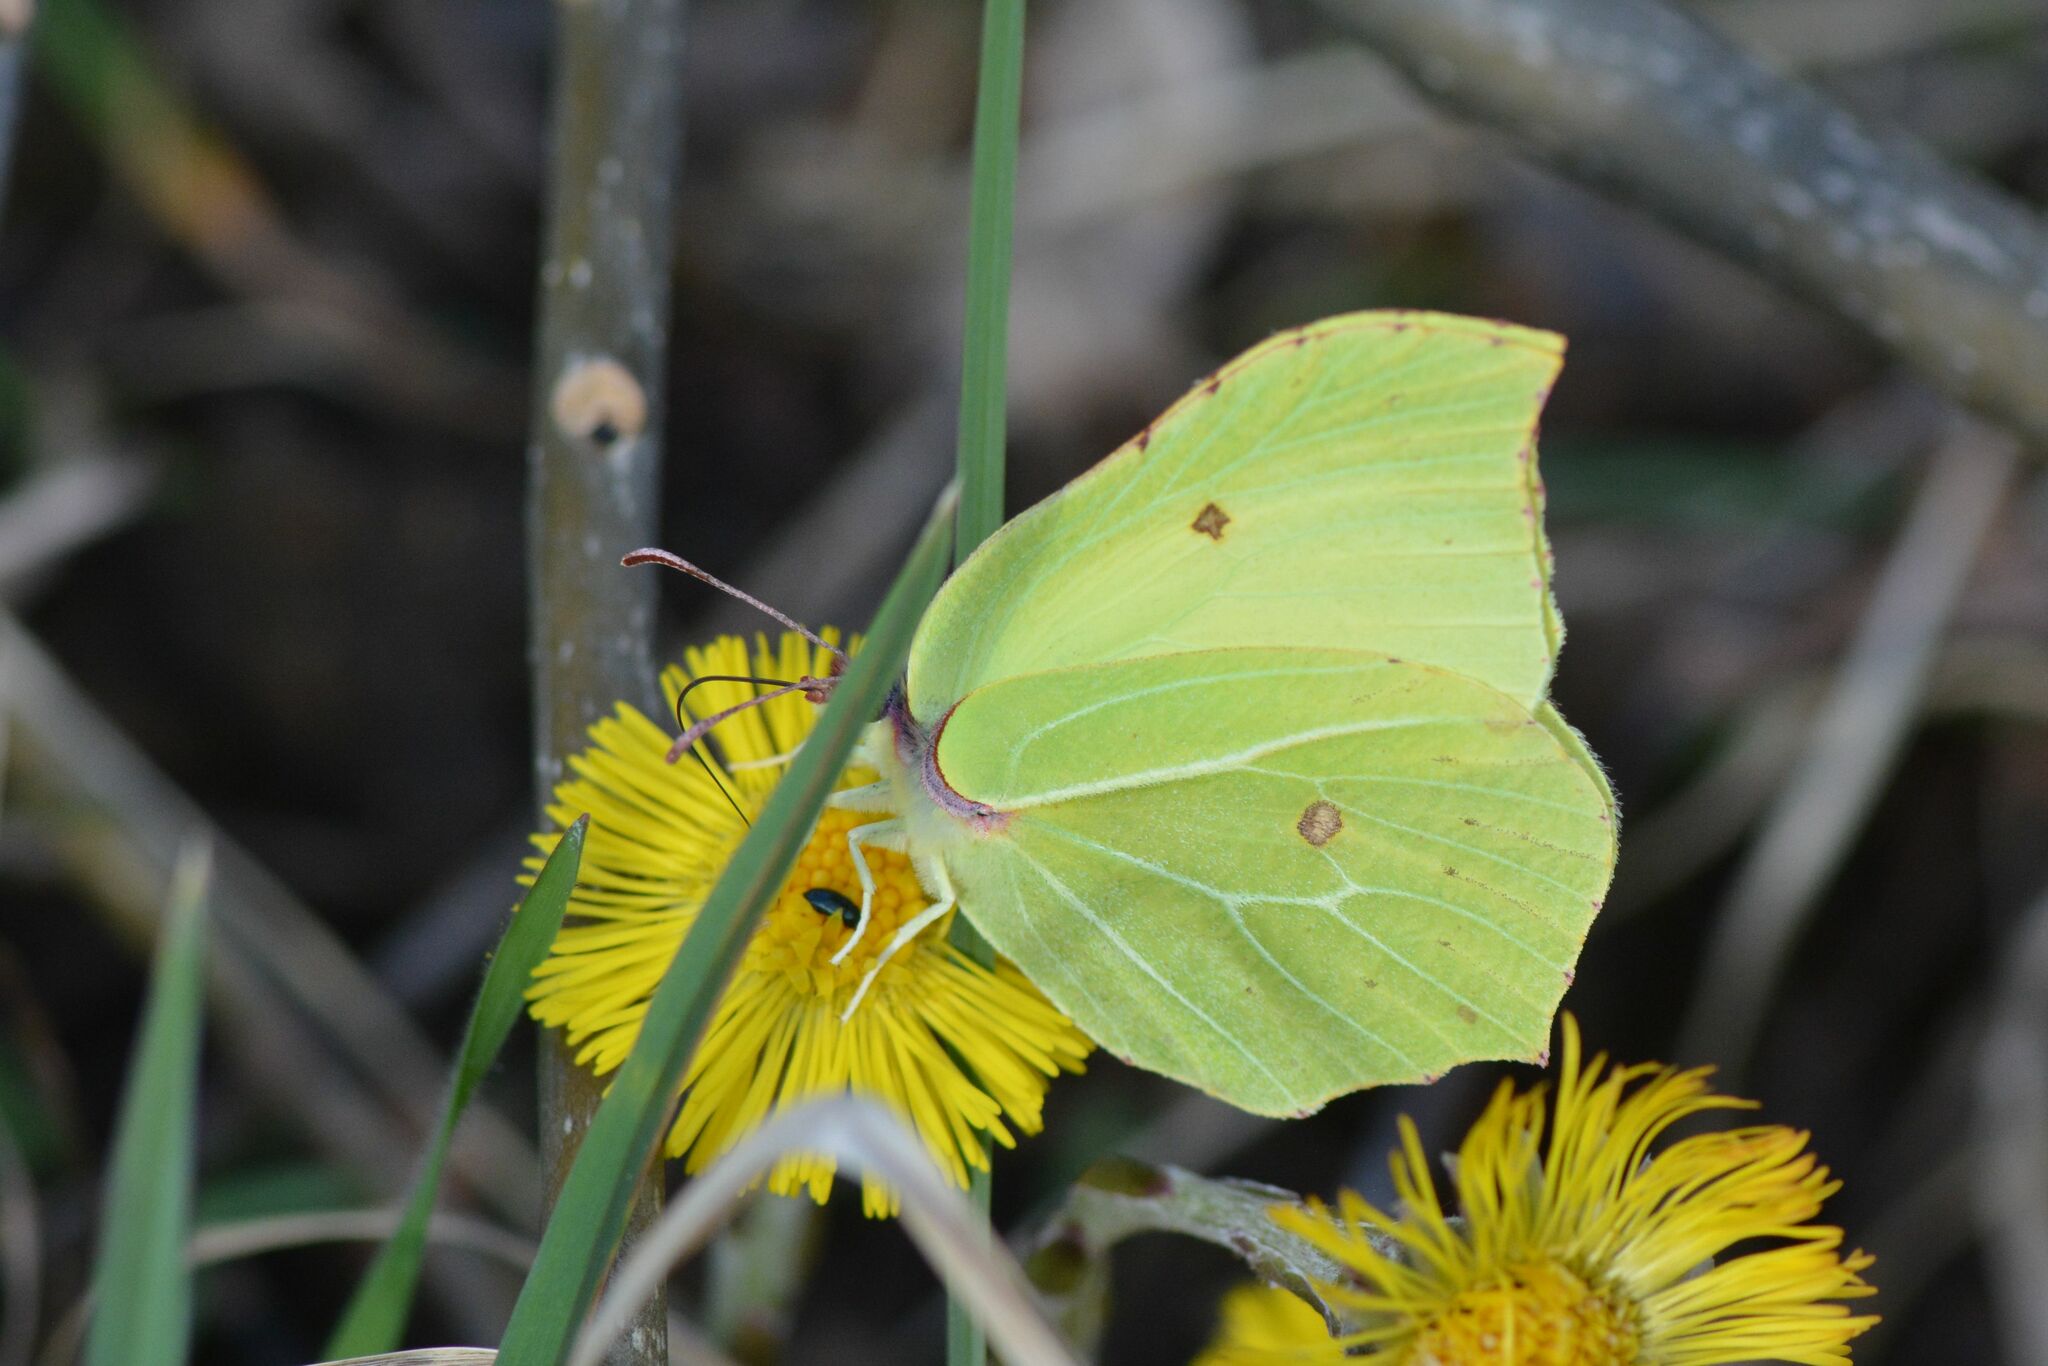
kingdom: Animalia
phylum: Arthropoda
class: Insecta
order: Lepidoptera
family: Pieridae
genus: Gonepteryx
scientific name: Gonepteryx rhamni
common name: Brimstone
